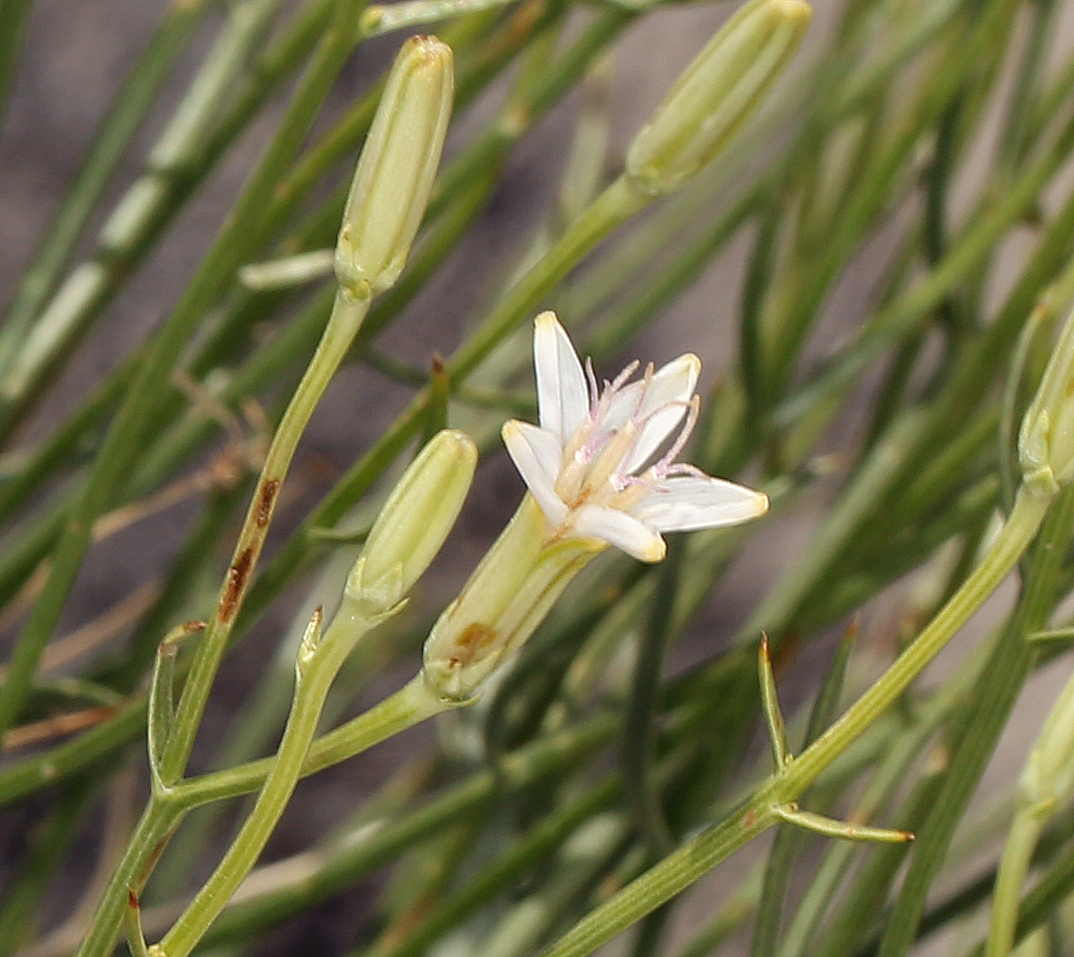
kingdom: Plantae
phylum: Tracheophyta
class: Magnoliopsida
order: Asterales
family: Asteraceae
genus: Chaetadelpha
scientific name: Chaetadelpha wheeleri
